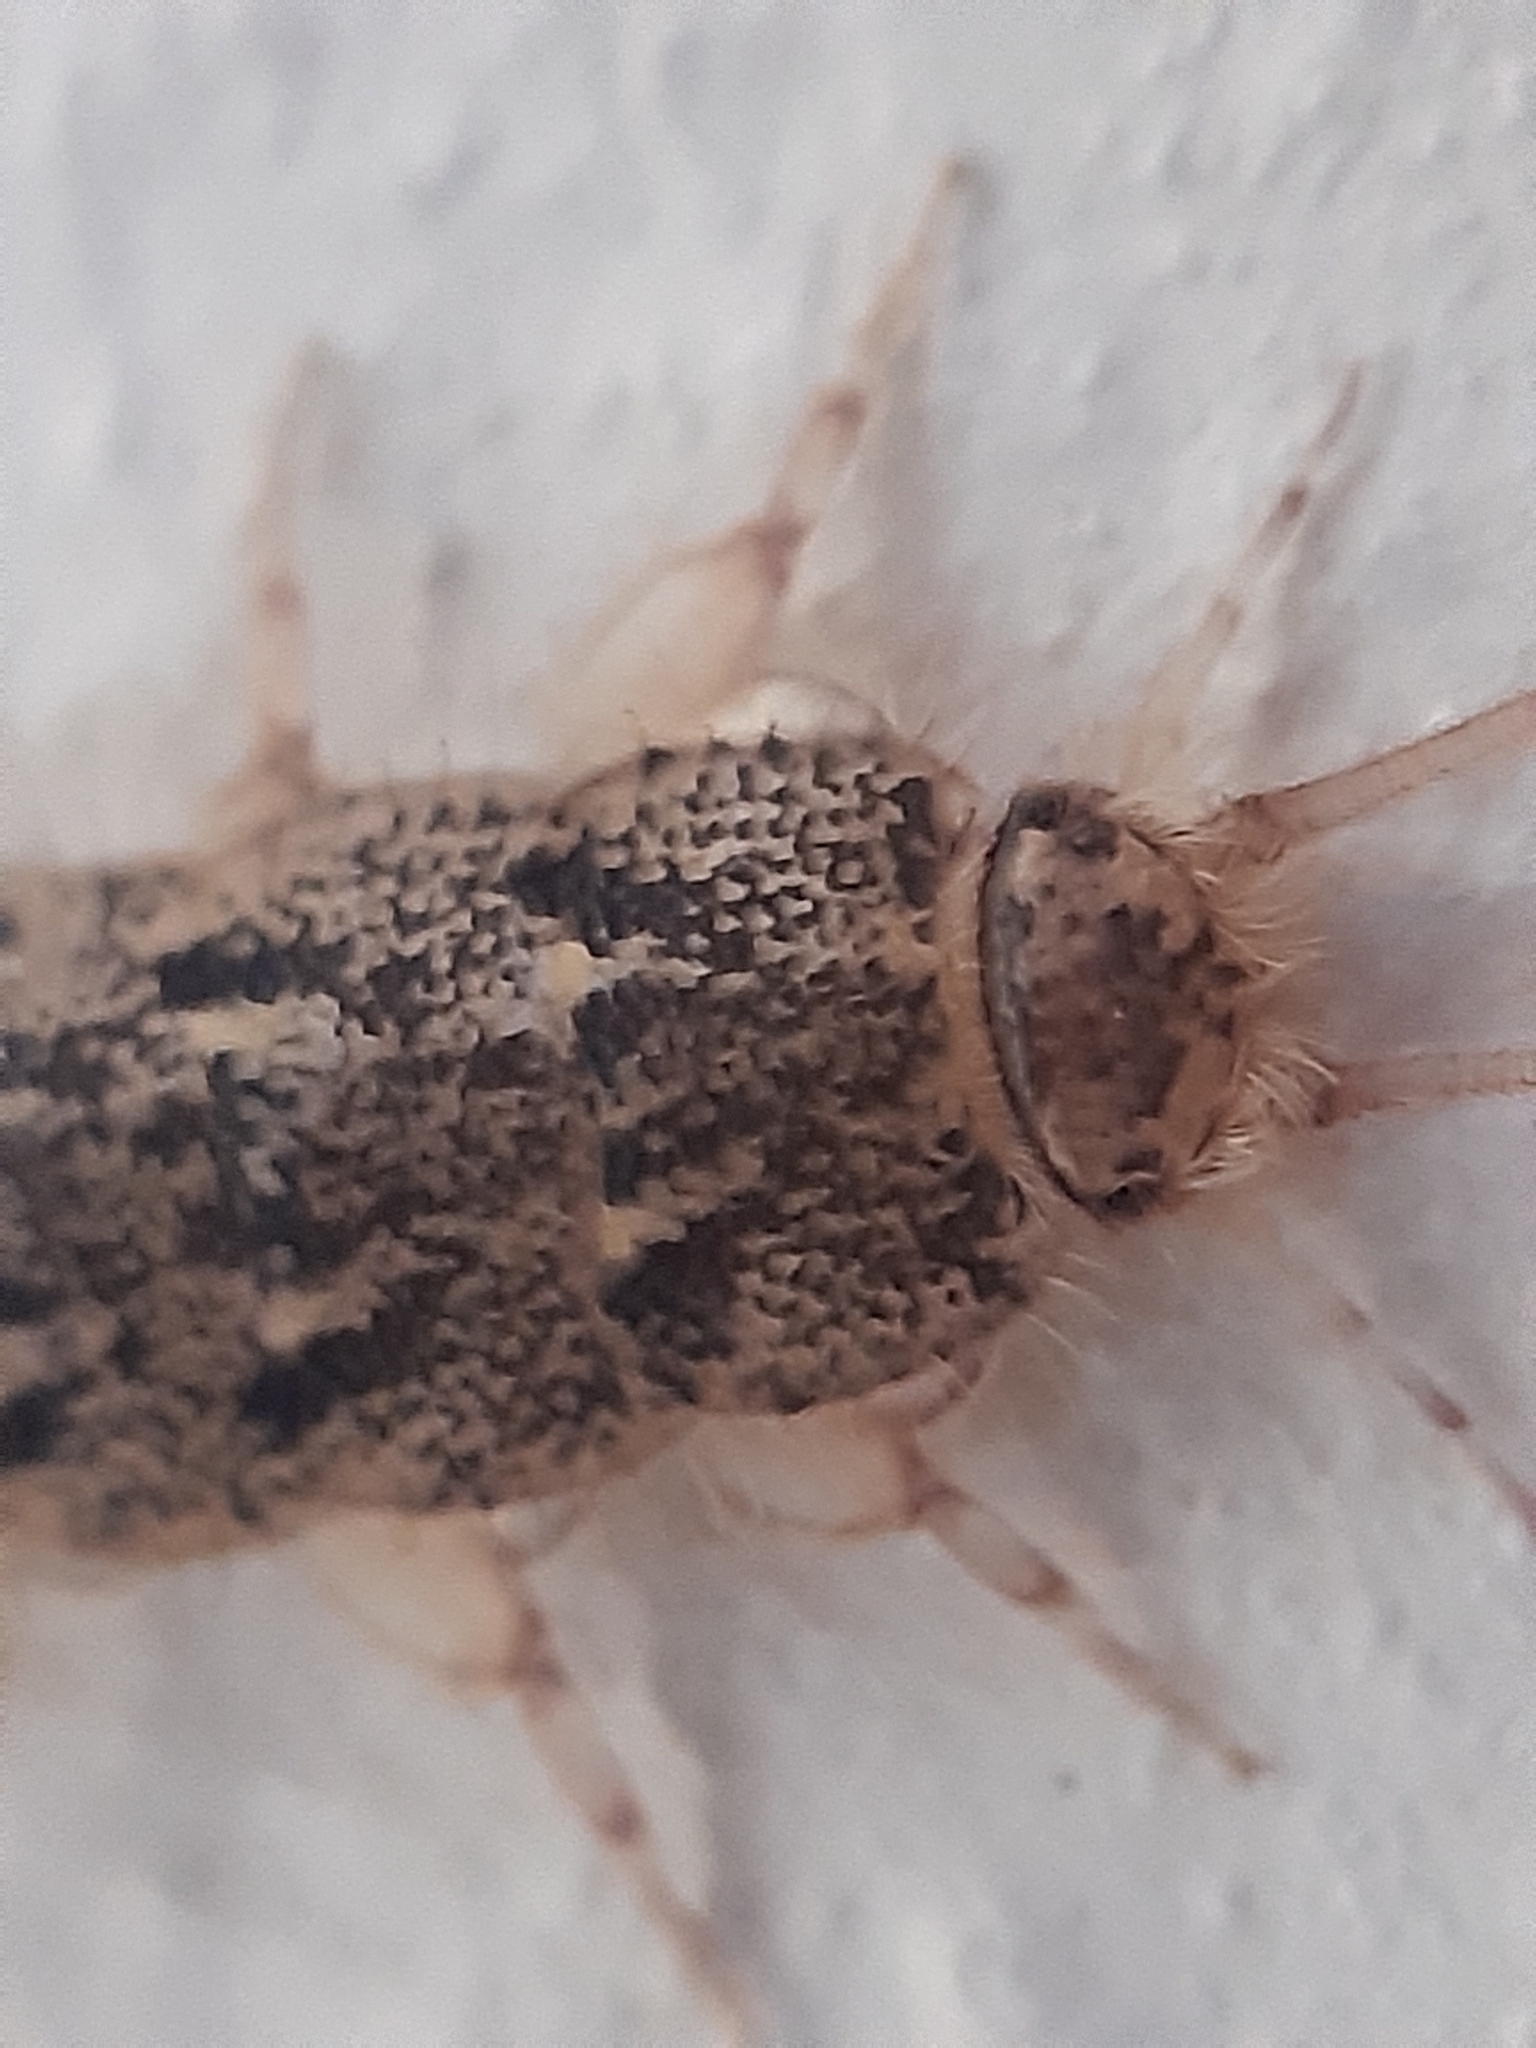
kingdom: Animalia
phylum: Arthropoda
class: Insecta
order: Zygentoma
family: Lepismatidae
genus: Ctenolepisma
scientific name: Ctenolepisma lineata
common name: Four-lined silverfish
